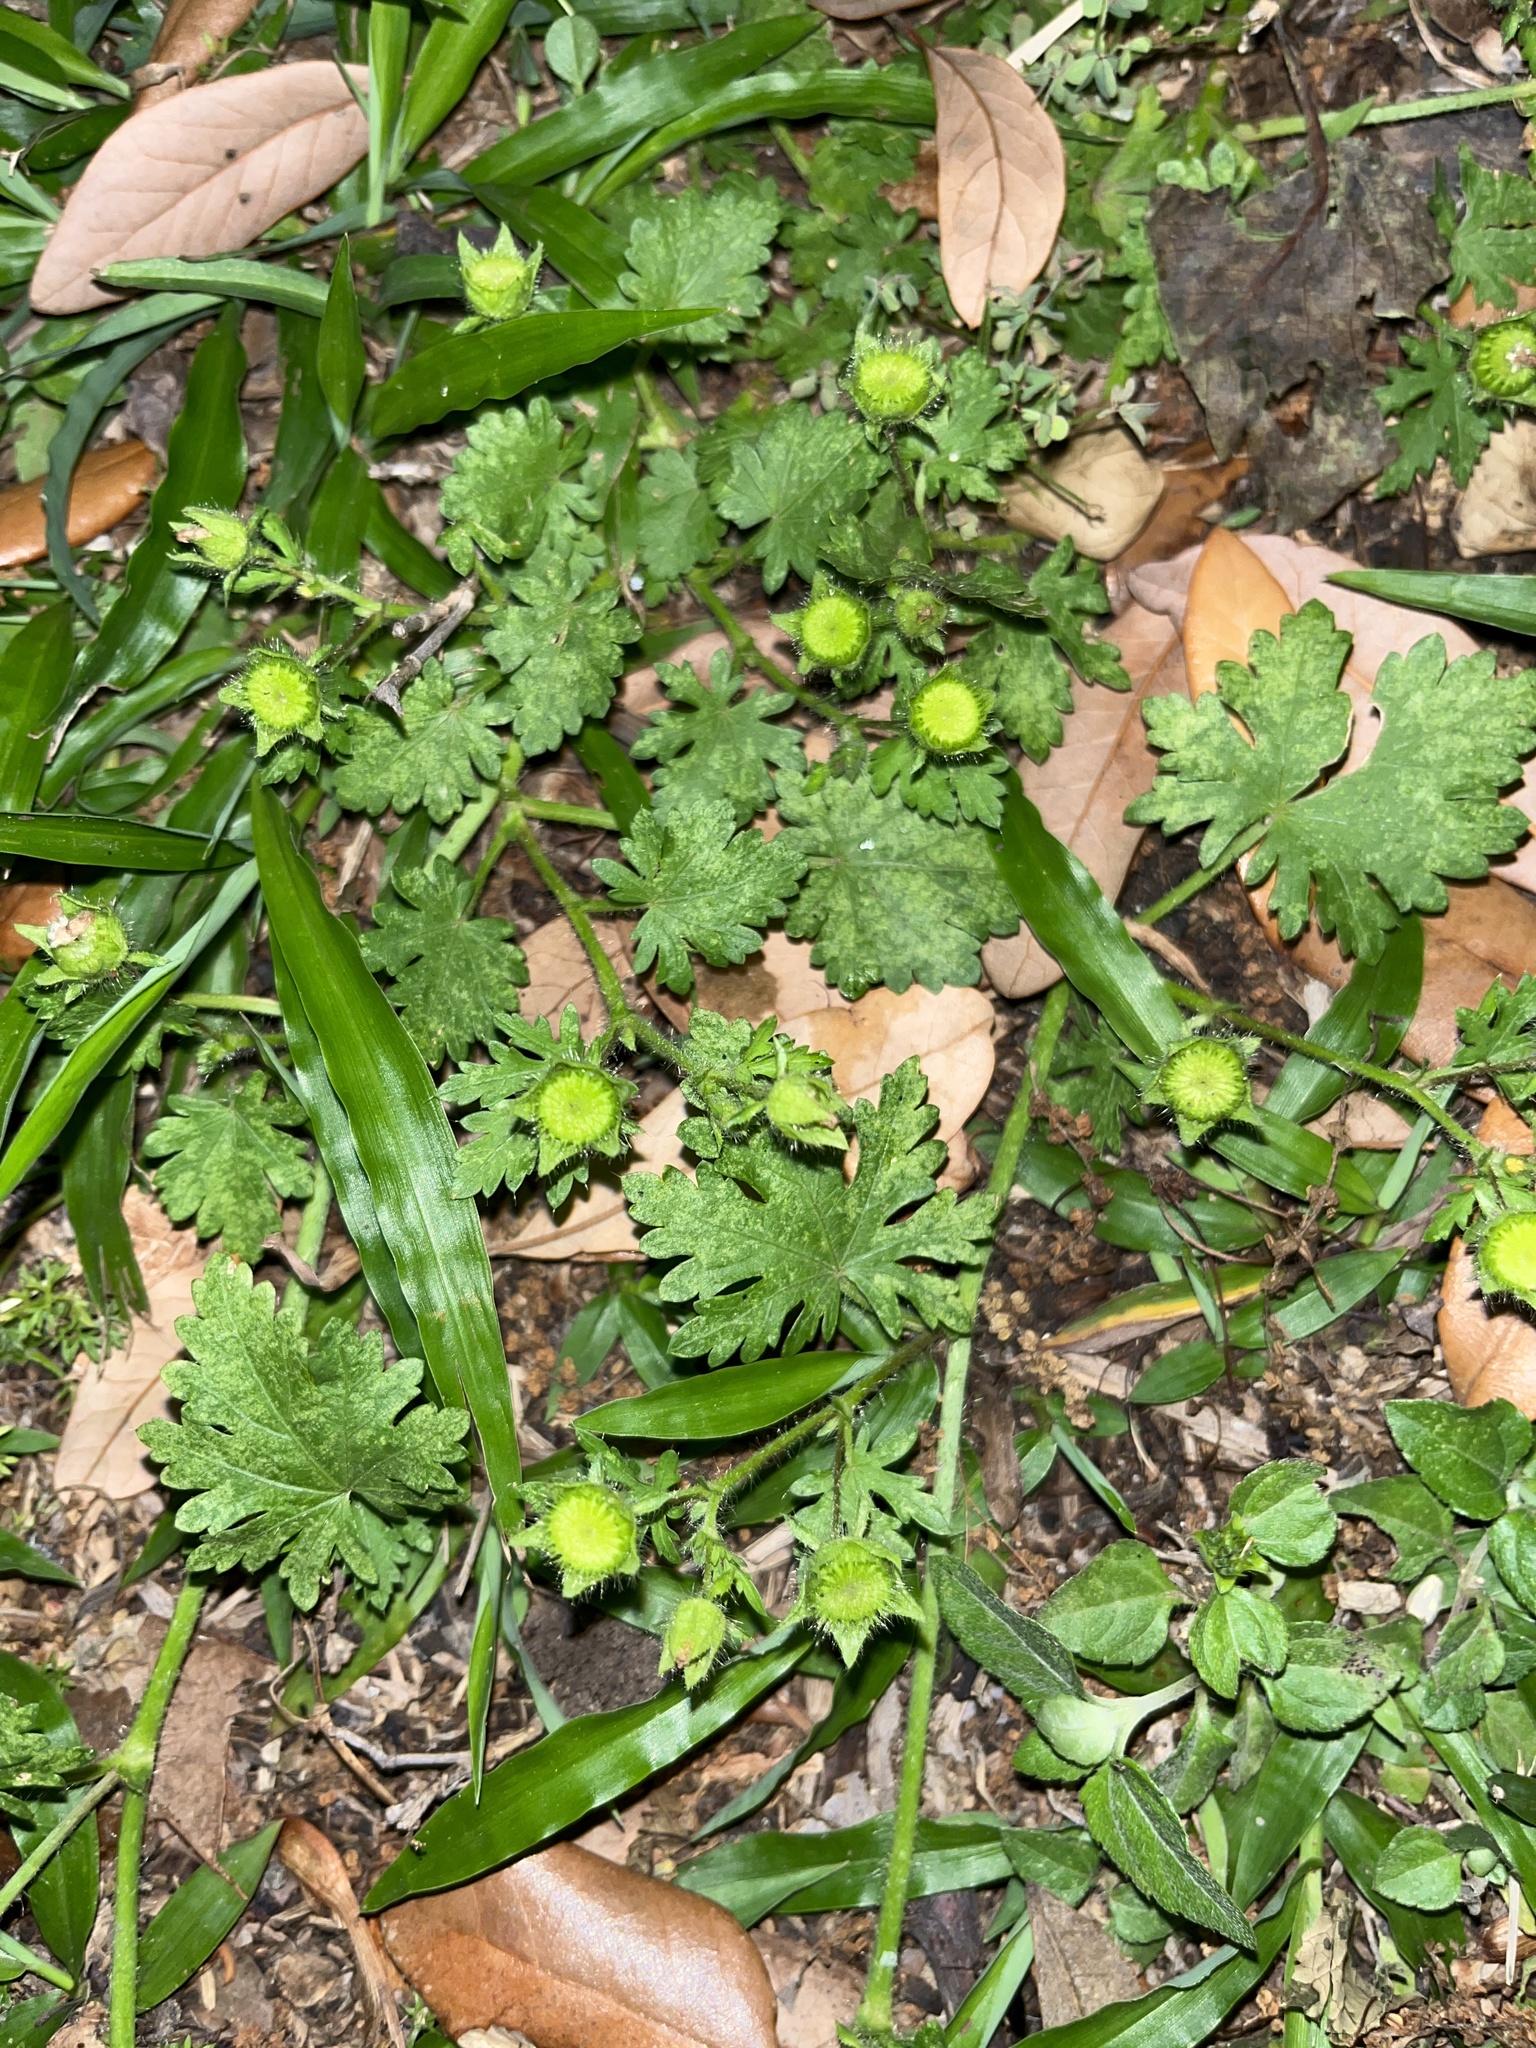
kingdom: Plantae
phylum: Tracheophyta
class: Magnoliopsida
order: Malvales
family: Malvaceae
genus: Modiola
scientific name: Modiola caroliniana
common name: Carolina bristlemallow
